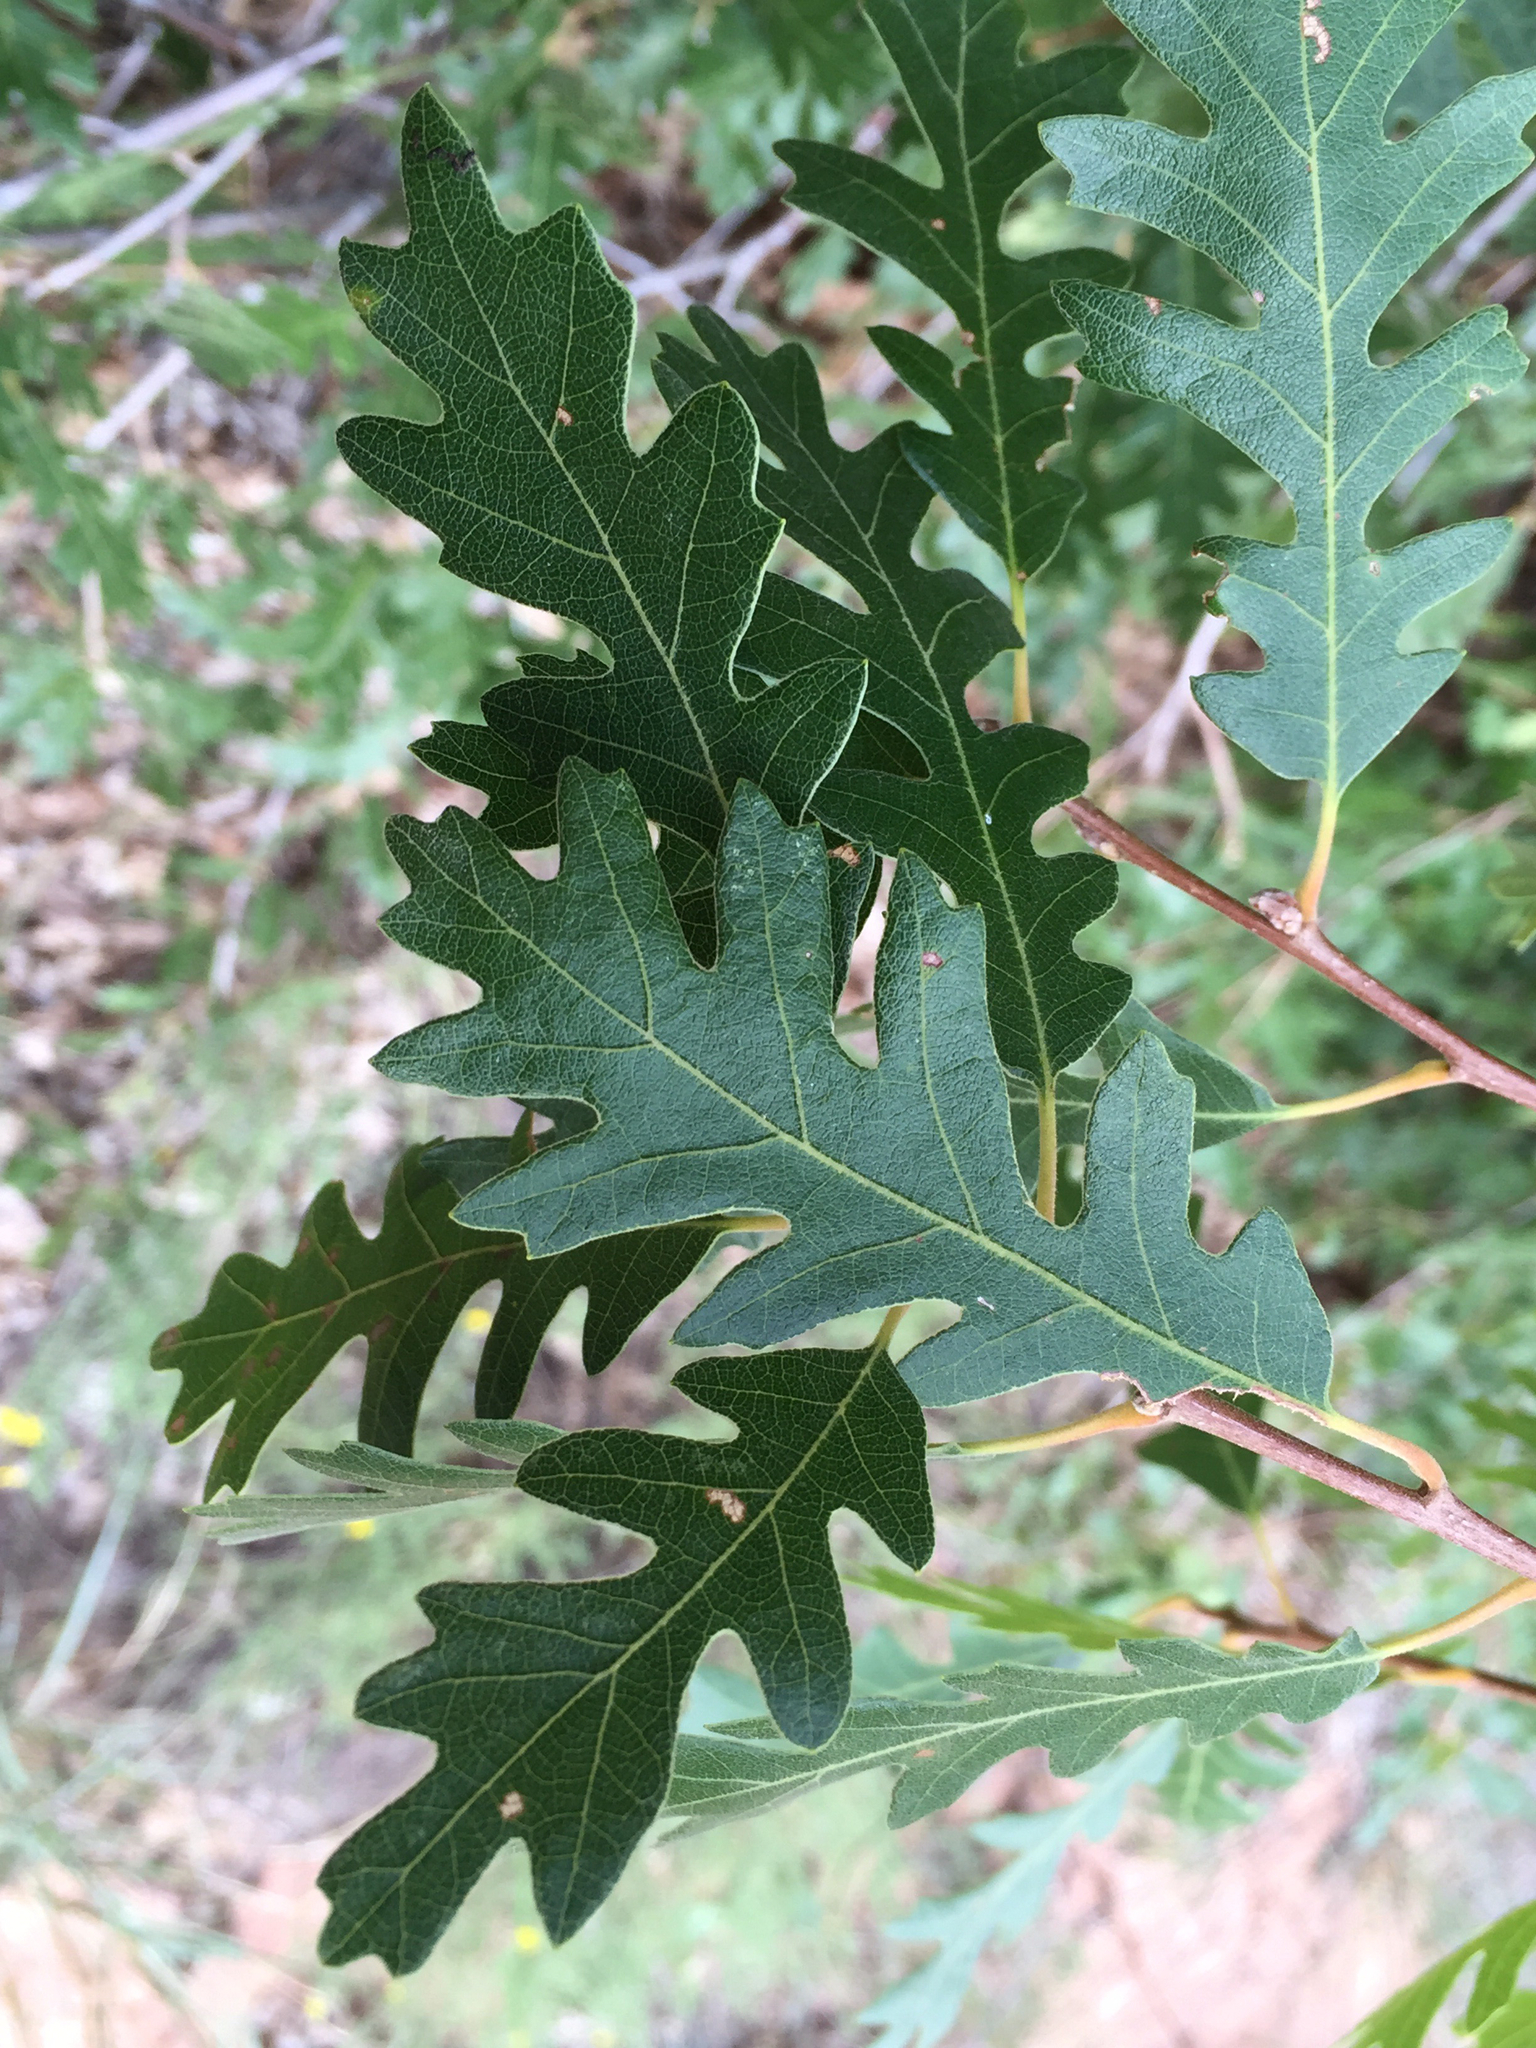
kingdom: Plantae
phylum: Tracheophyta
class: Magnoliopsida
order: Fagales
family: Fagaceae
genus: Quercus
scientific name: Quercus gambelii
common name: Gambel oak
